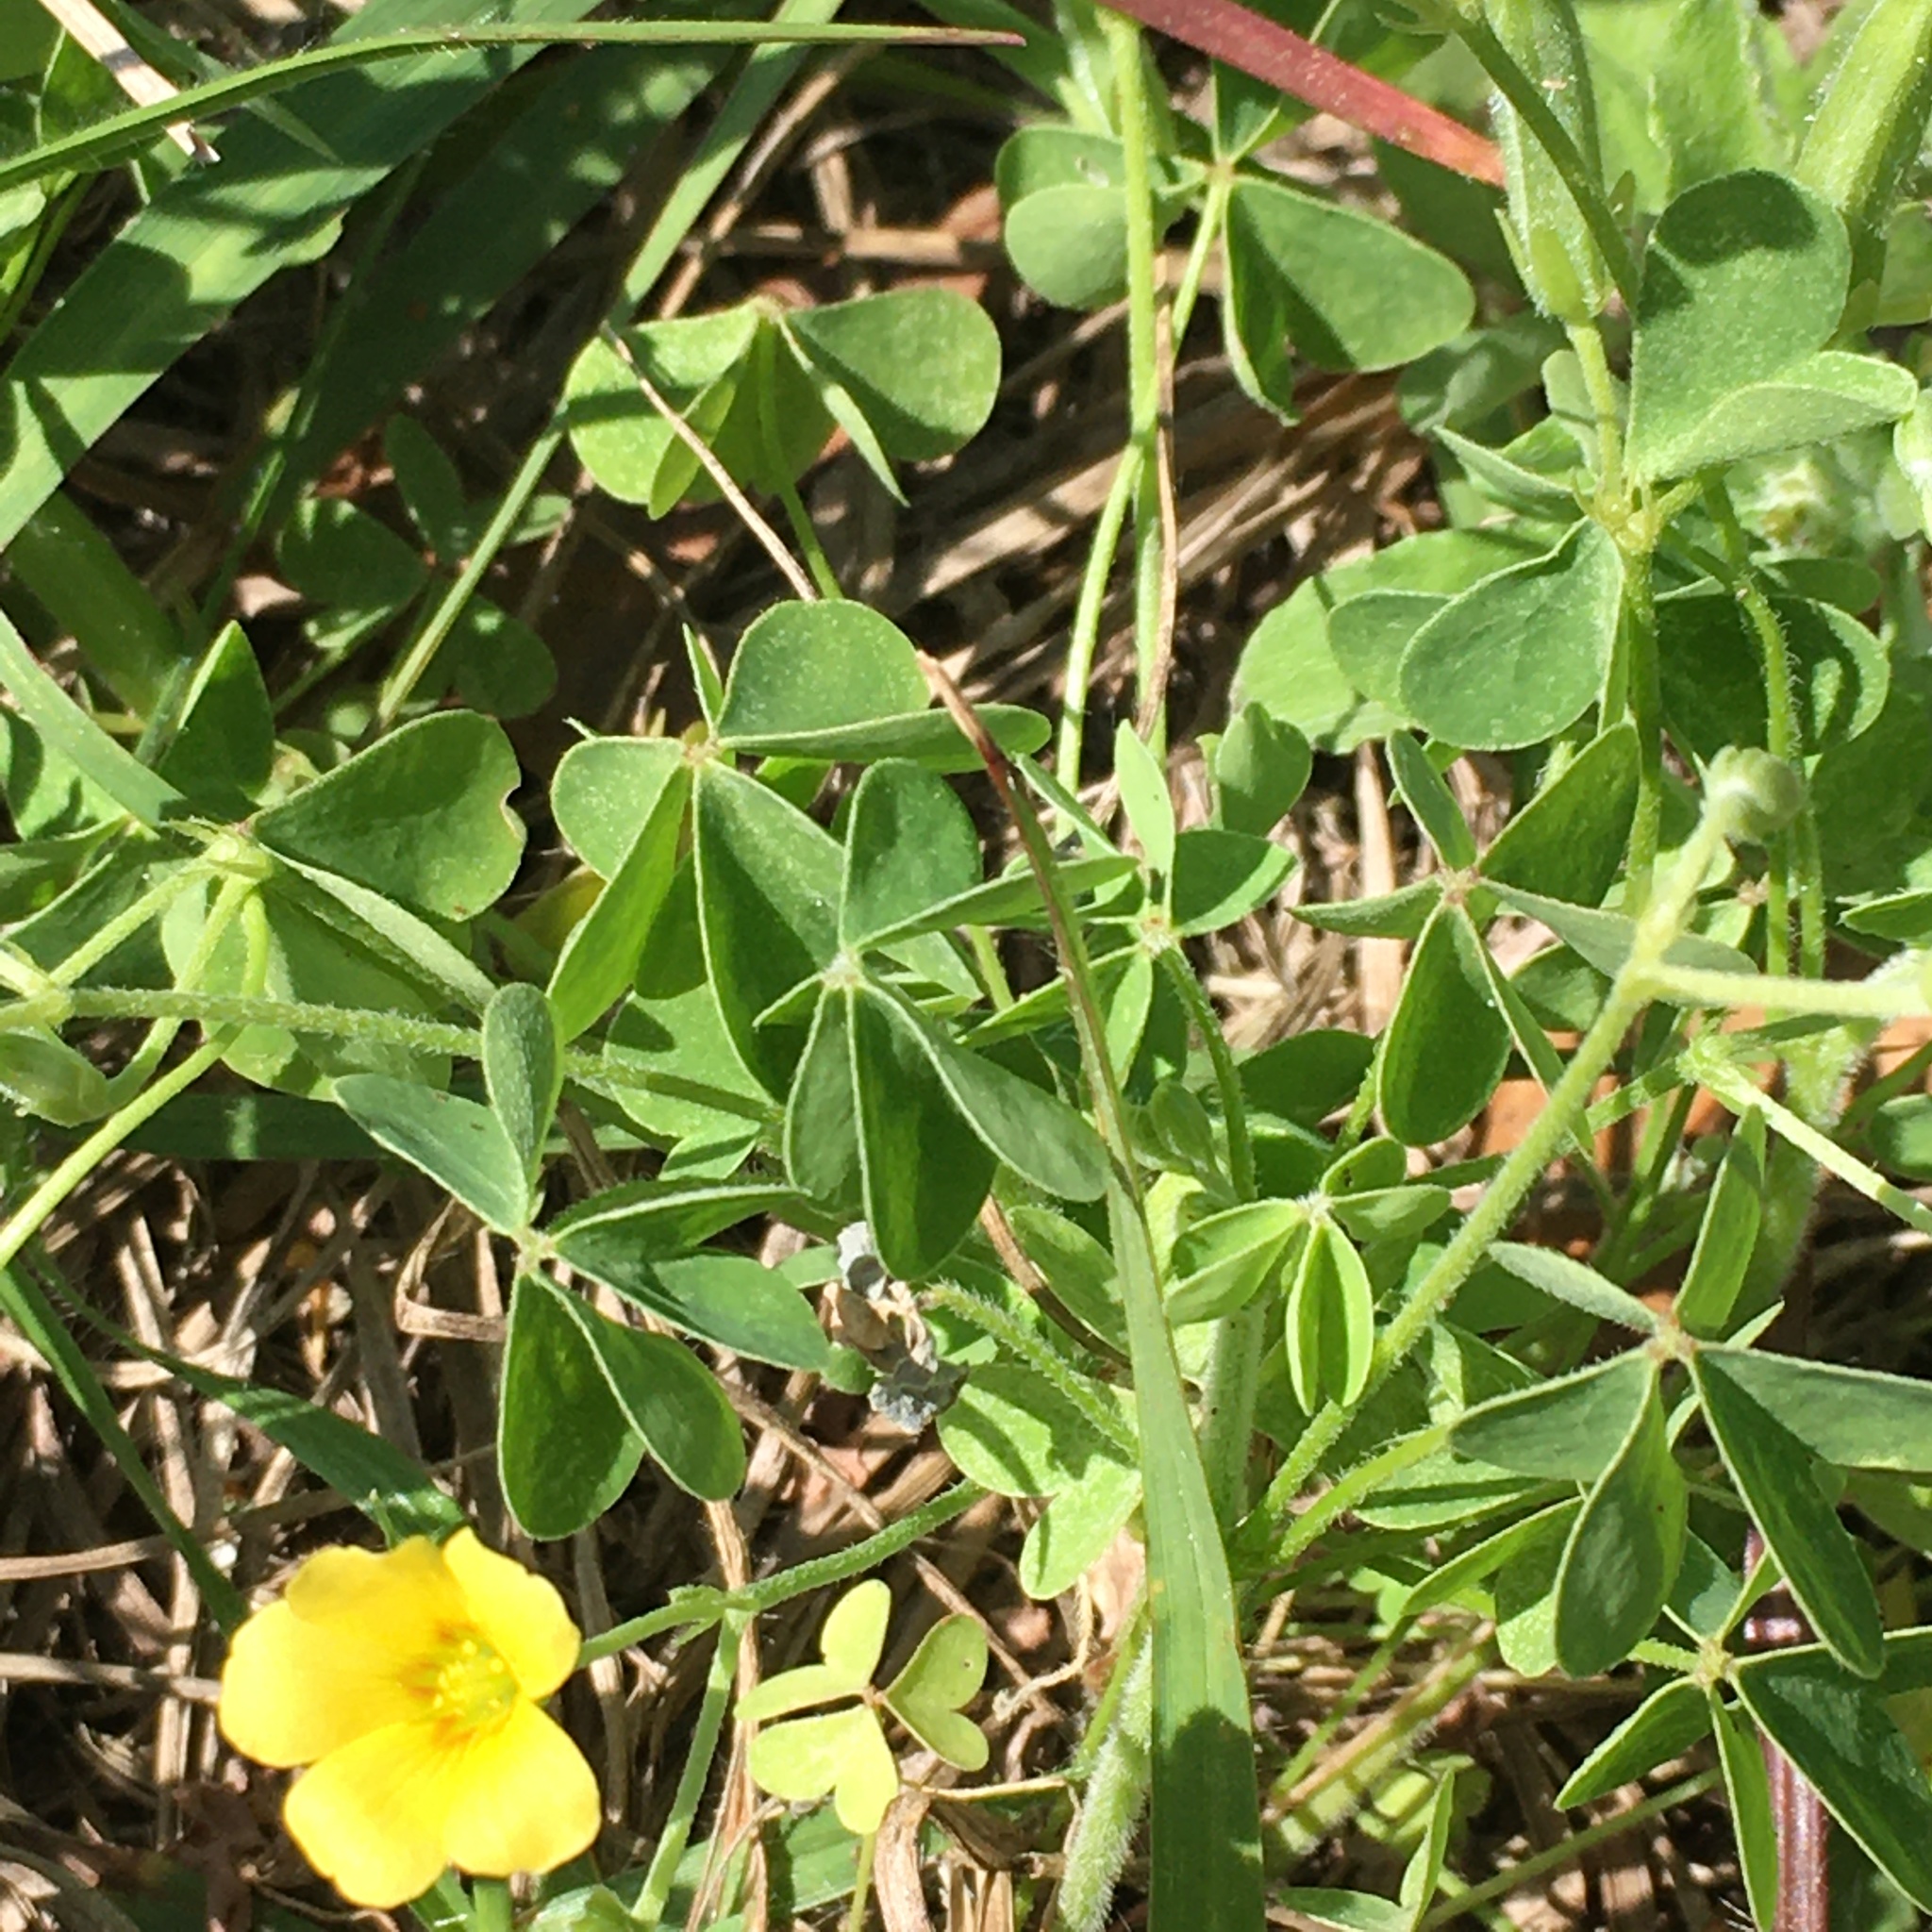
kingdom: Plantae
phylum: Tracheophyta
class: Magnoliopsida
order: Oxalidales
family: Oxalidaceae
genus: Oxalis
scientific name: Oxalis corniculata
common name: Procumbent yellow-sorrel
